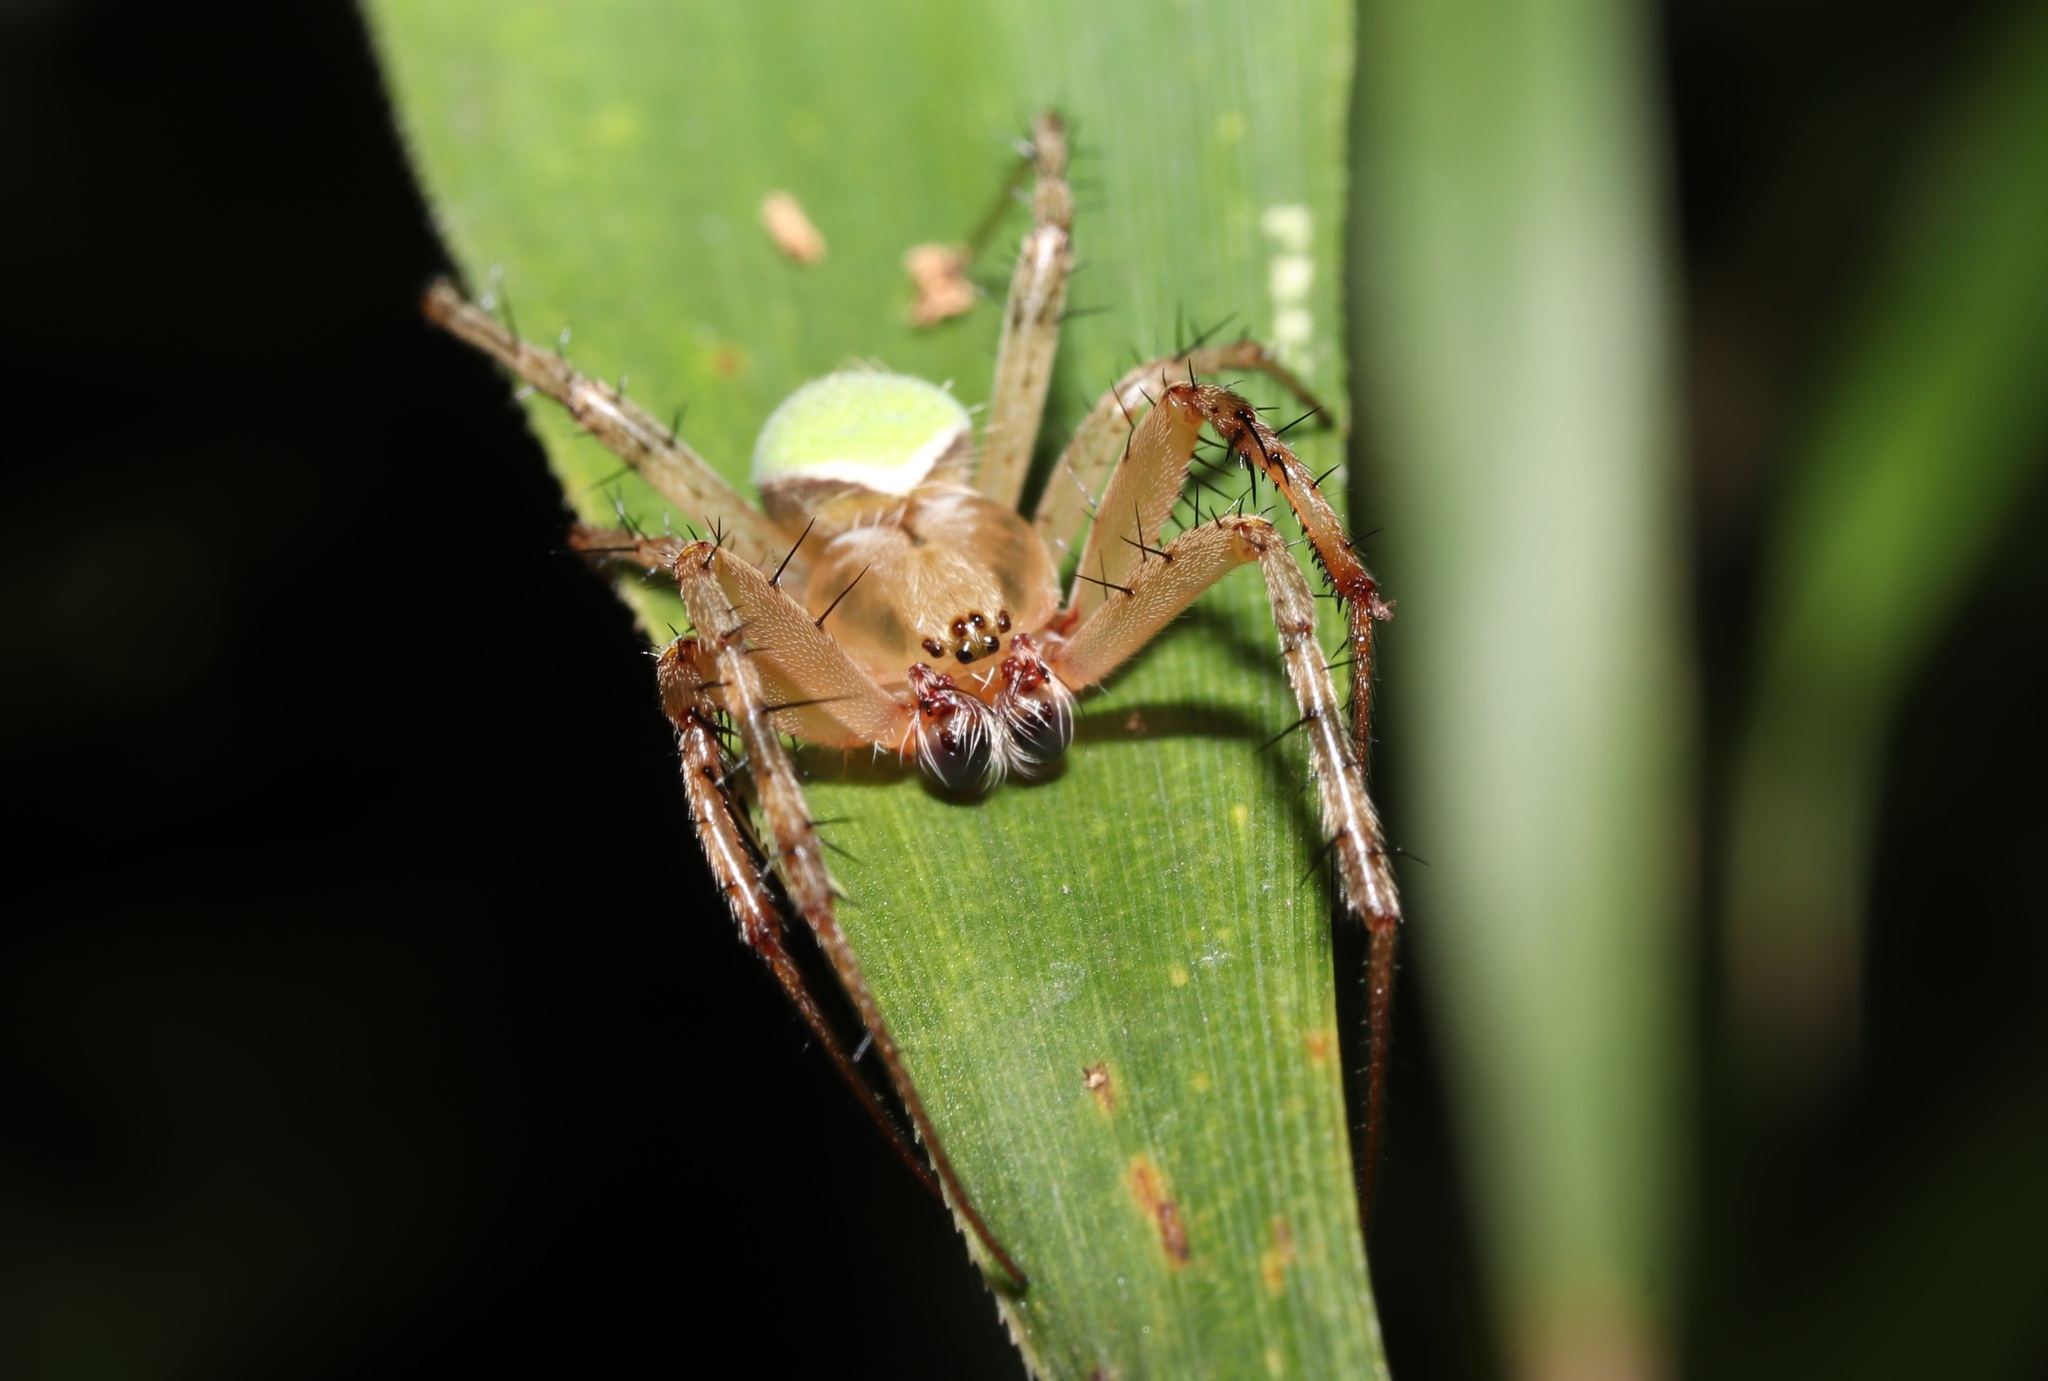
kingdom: Animalia
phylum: Arthropoda
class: Arachnida
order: Araneae
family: Araneidae
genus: Neoscona
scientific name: Neoscona mellotteei
